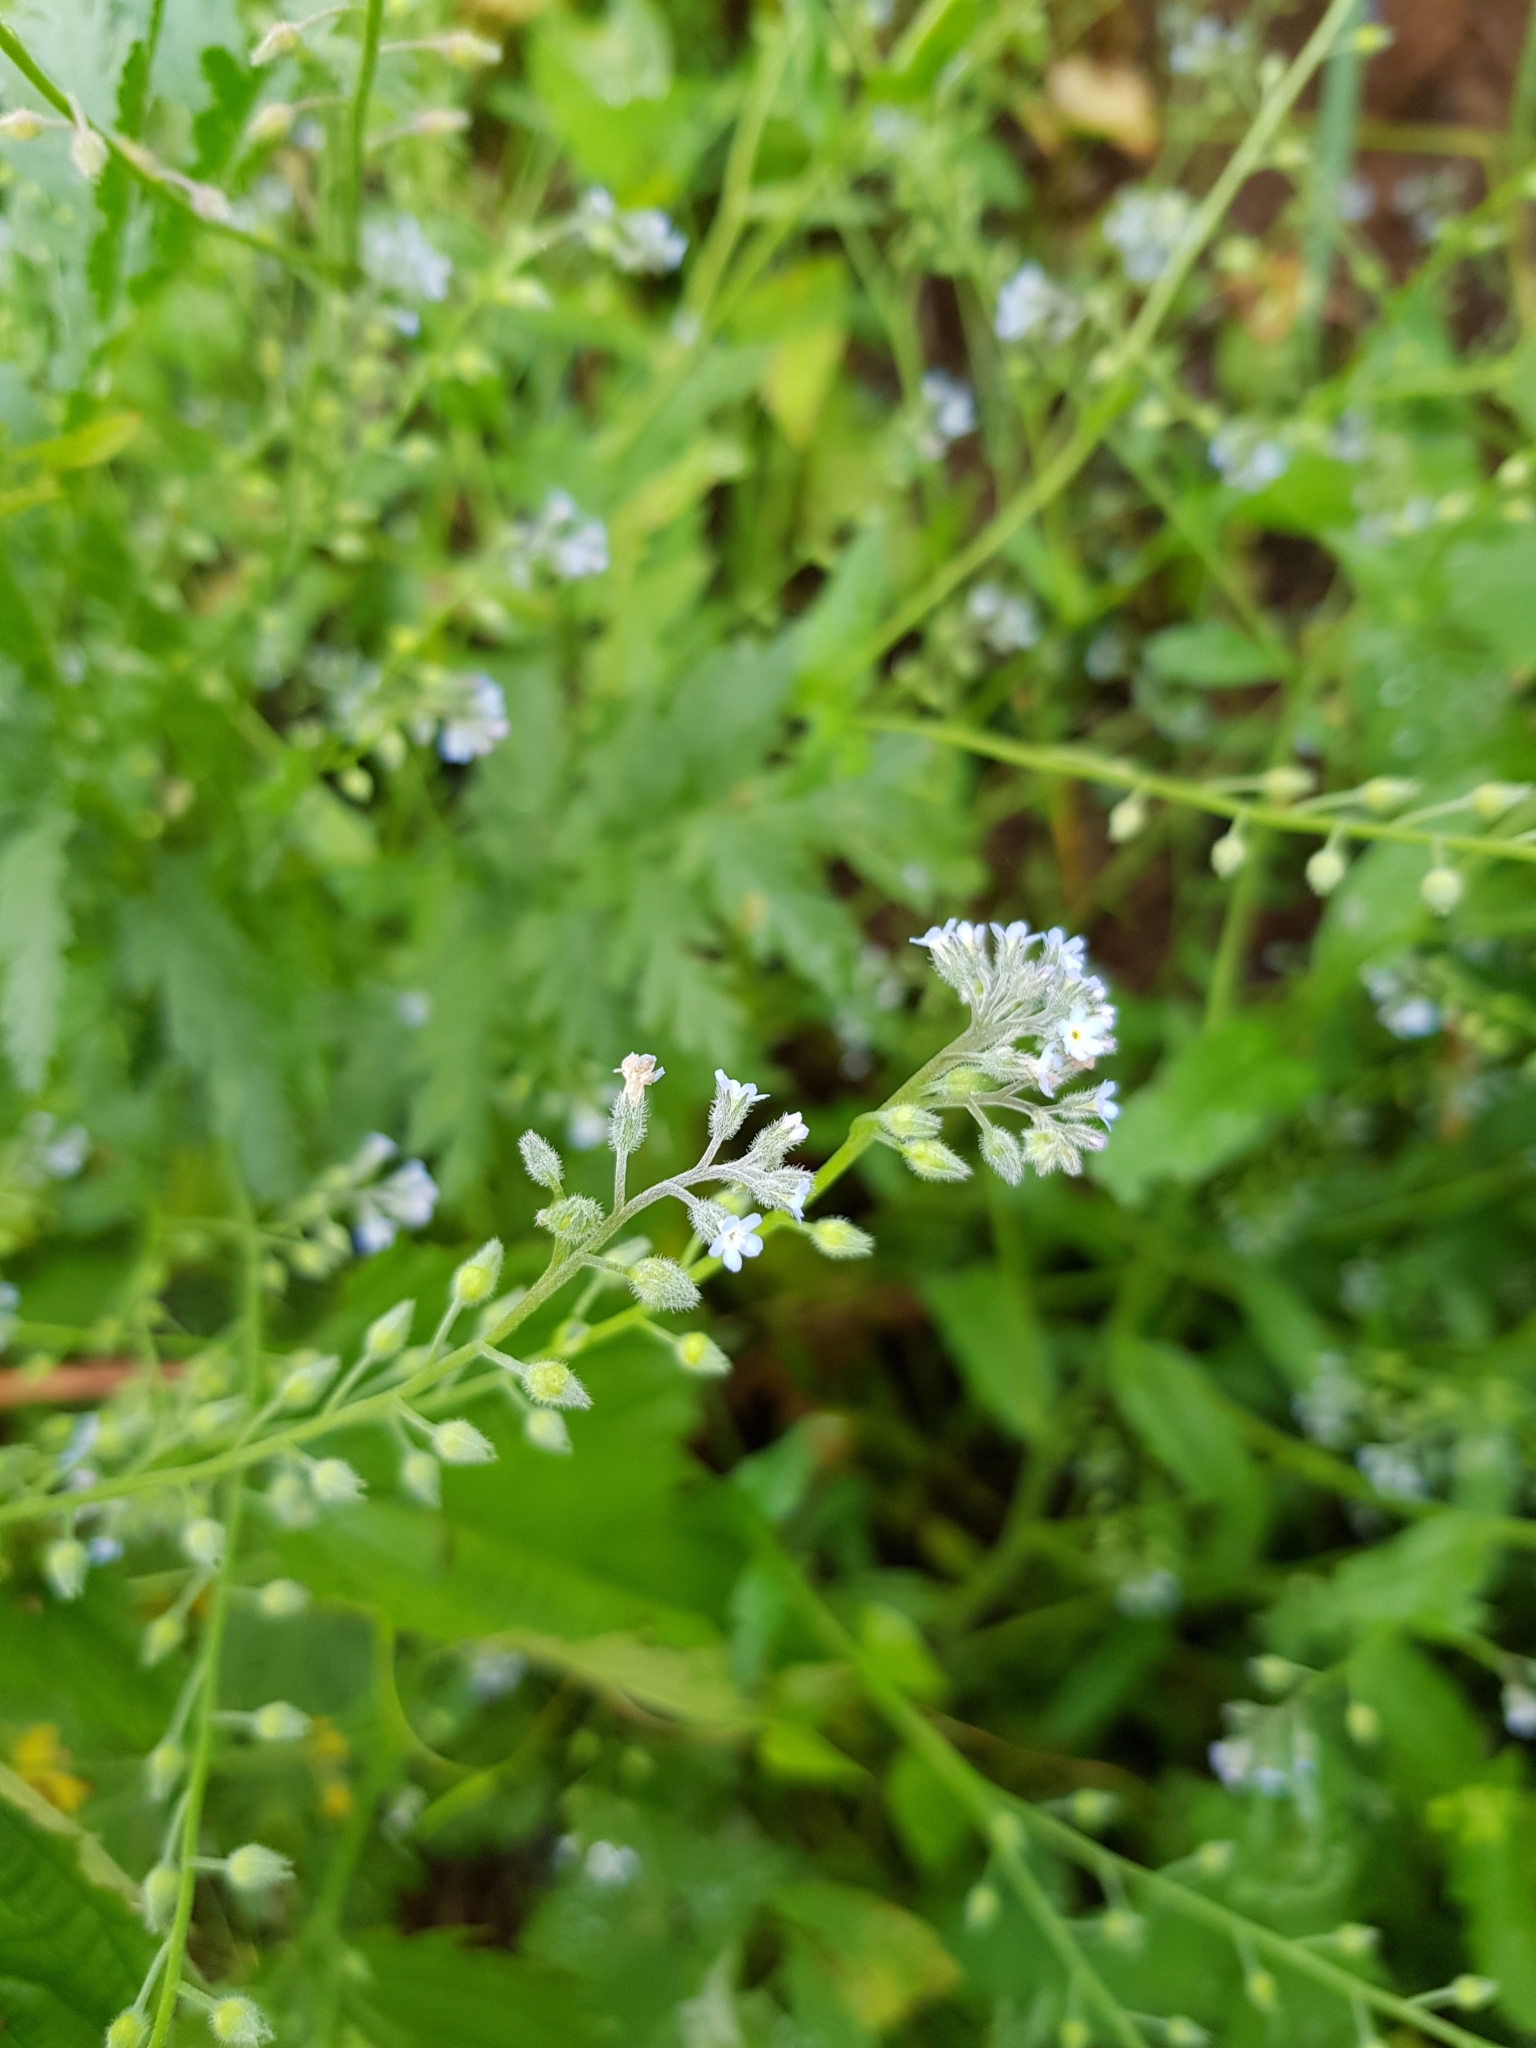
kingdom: Plantae
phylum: Tracheophyta
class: Magnoliopsida
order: Boraginales
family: Boraginaceae
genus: Myosotis
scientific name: Myosotis arvensis
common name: Field forget-me-not
